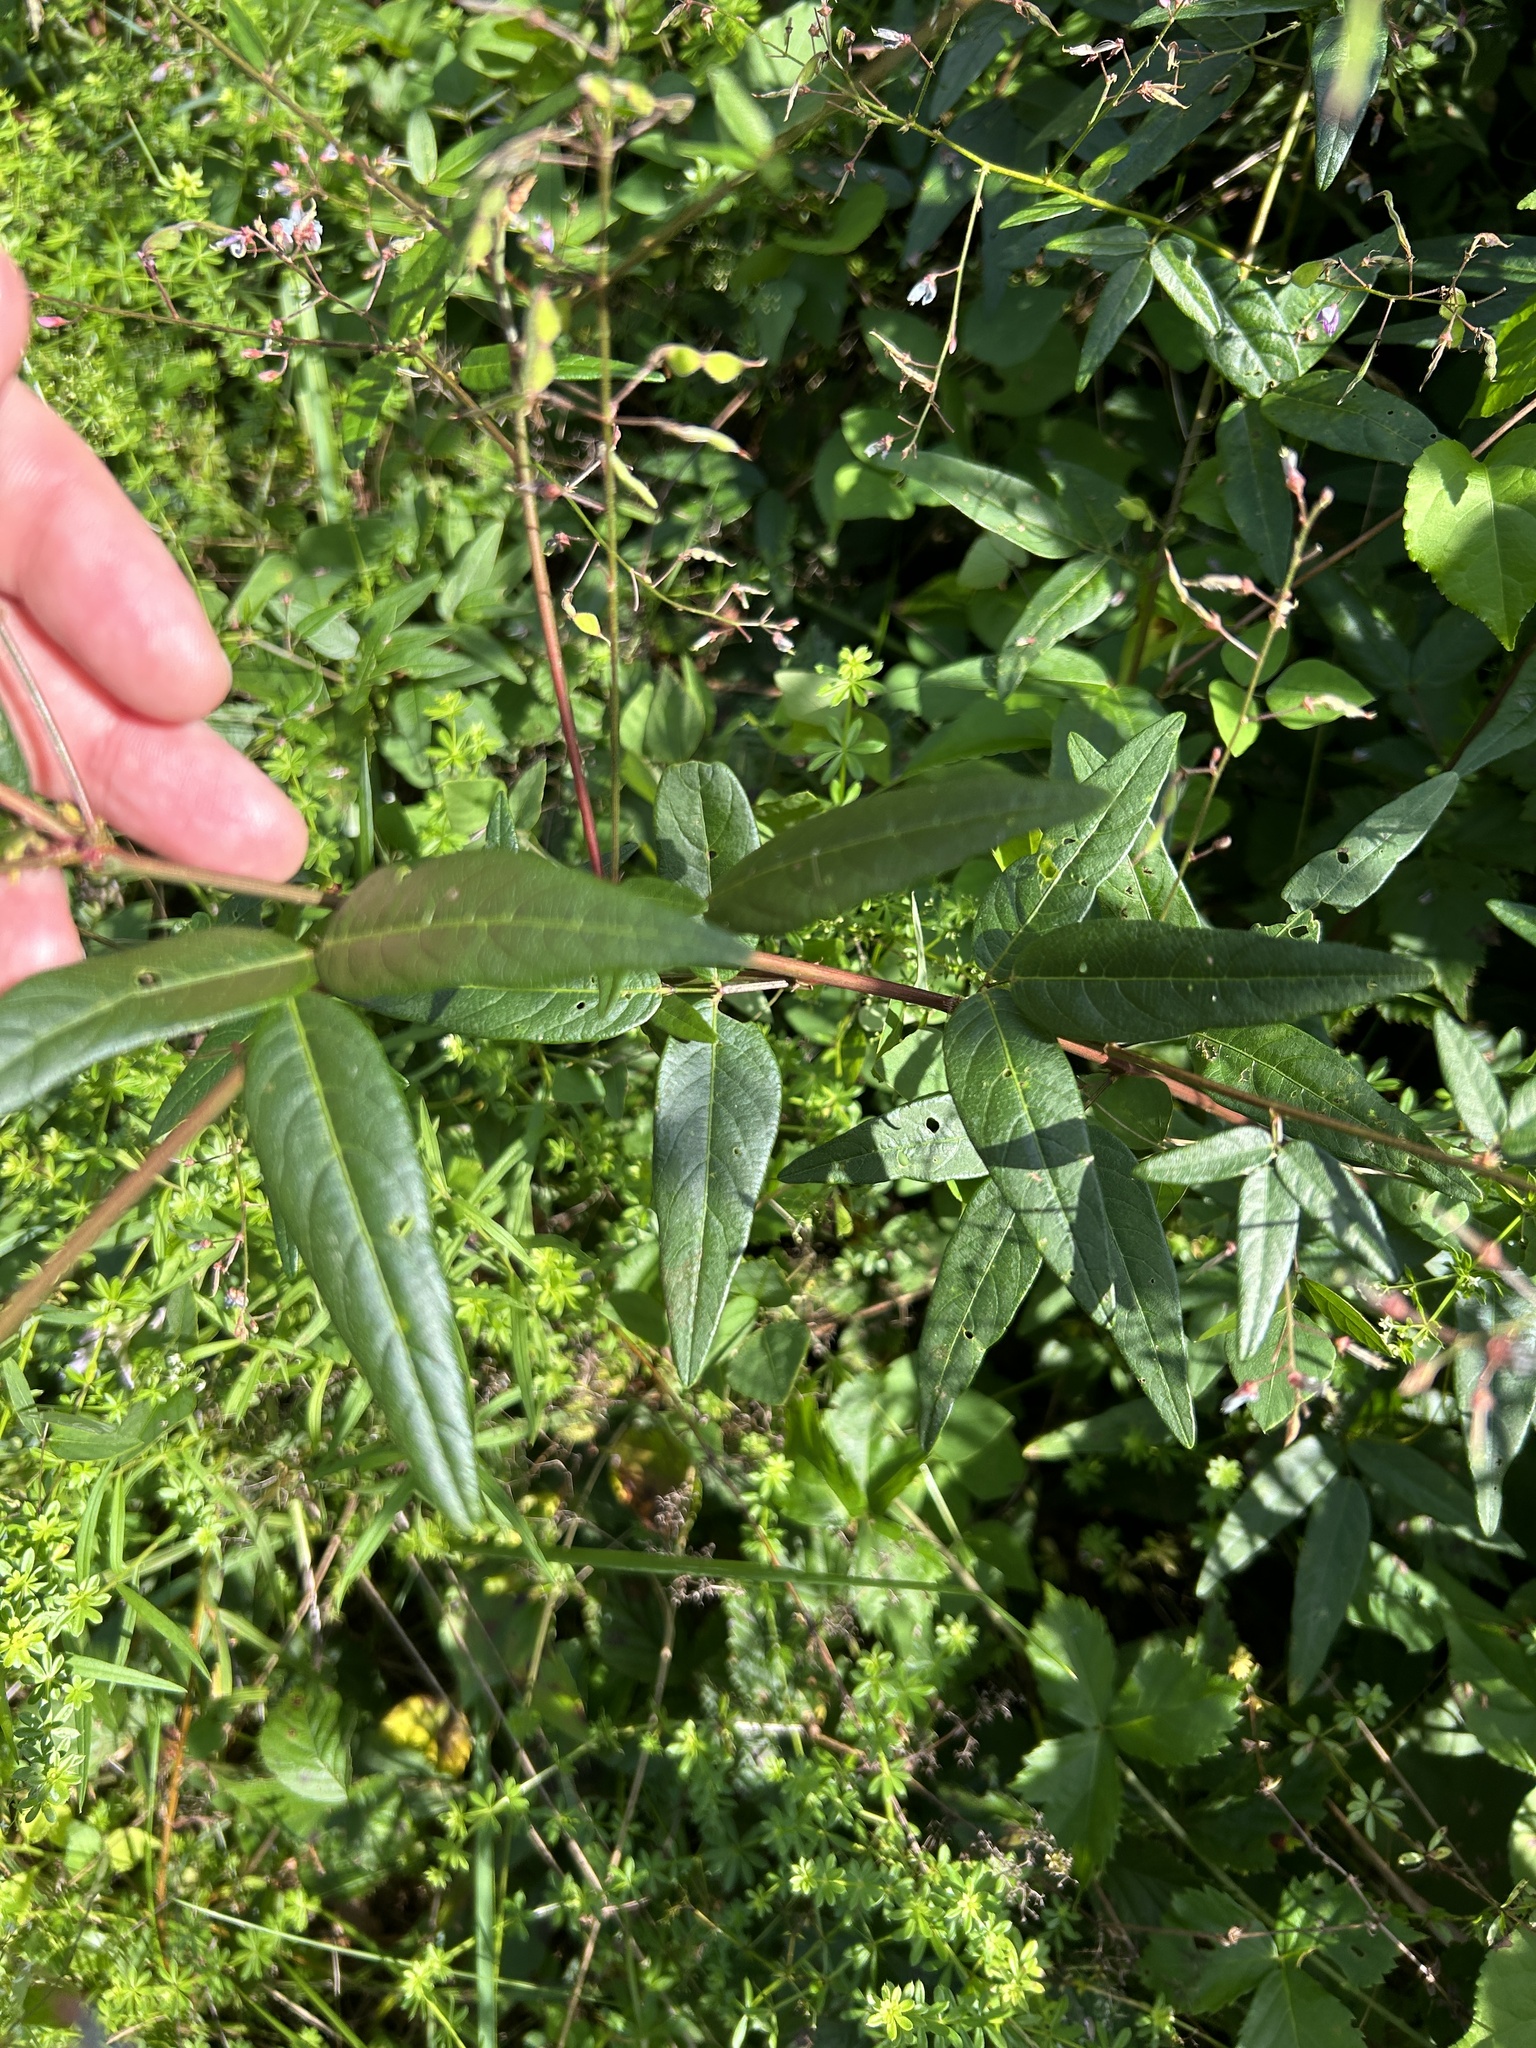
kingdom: Plantae
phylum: Tracheophyta
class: Magnoliopsida
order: Fabales
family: Fabaceae
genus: Desmodium
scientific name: Desmodium paniculatum
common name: Panicled tick-clover
